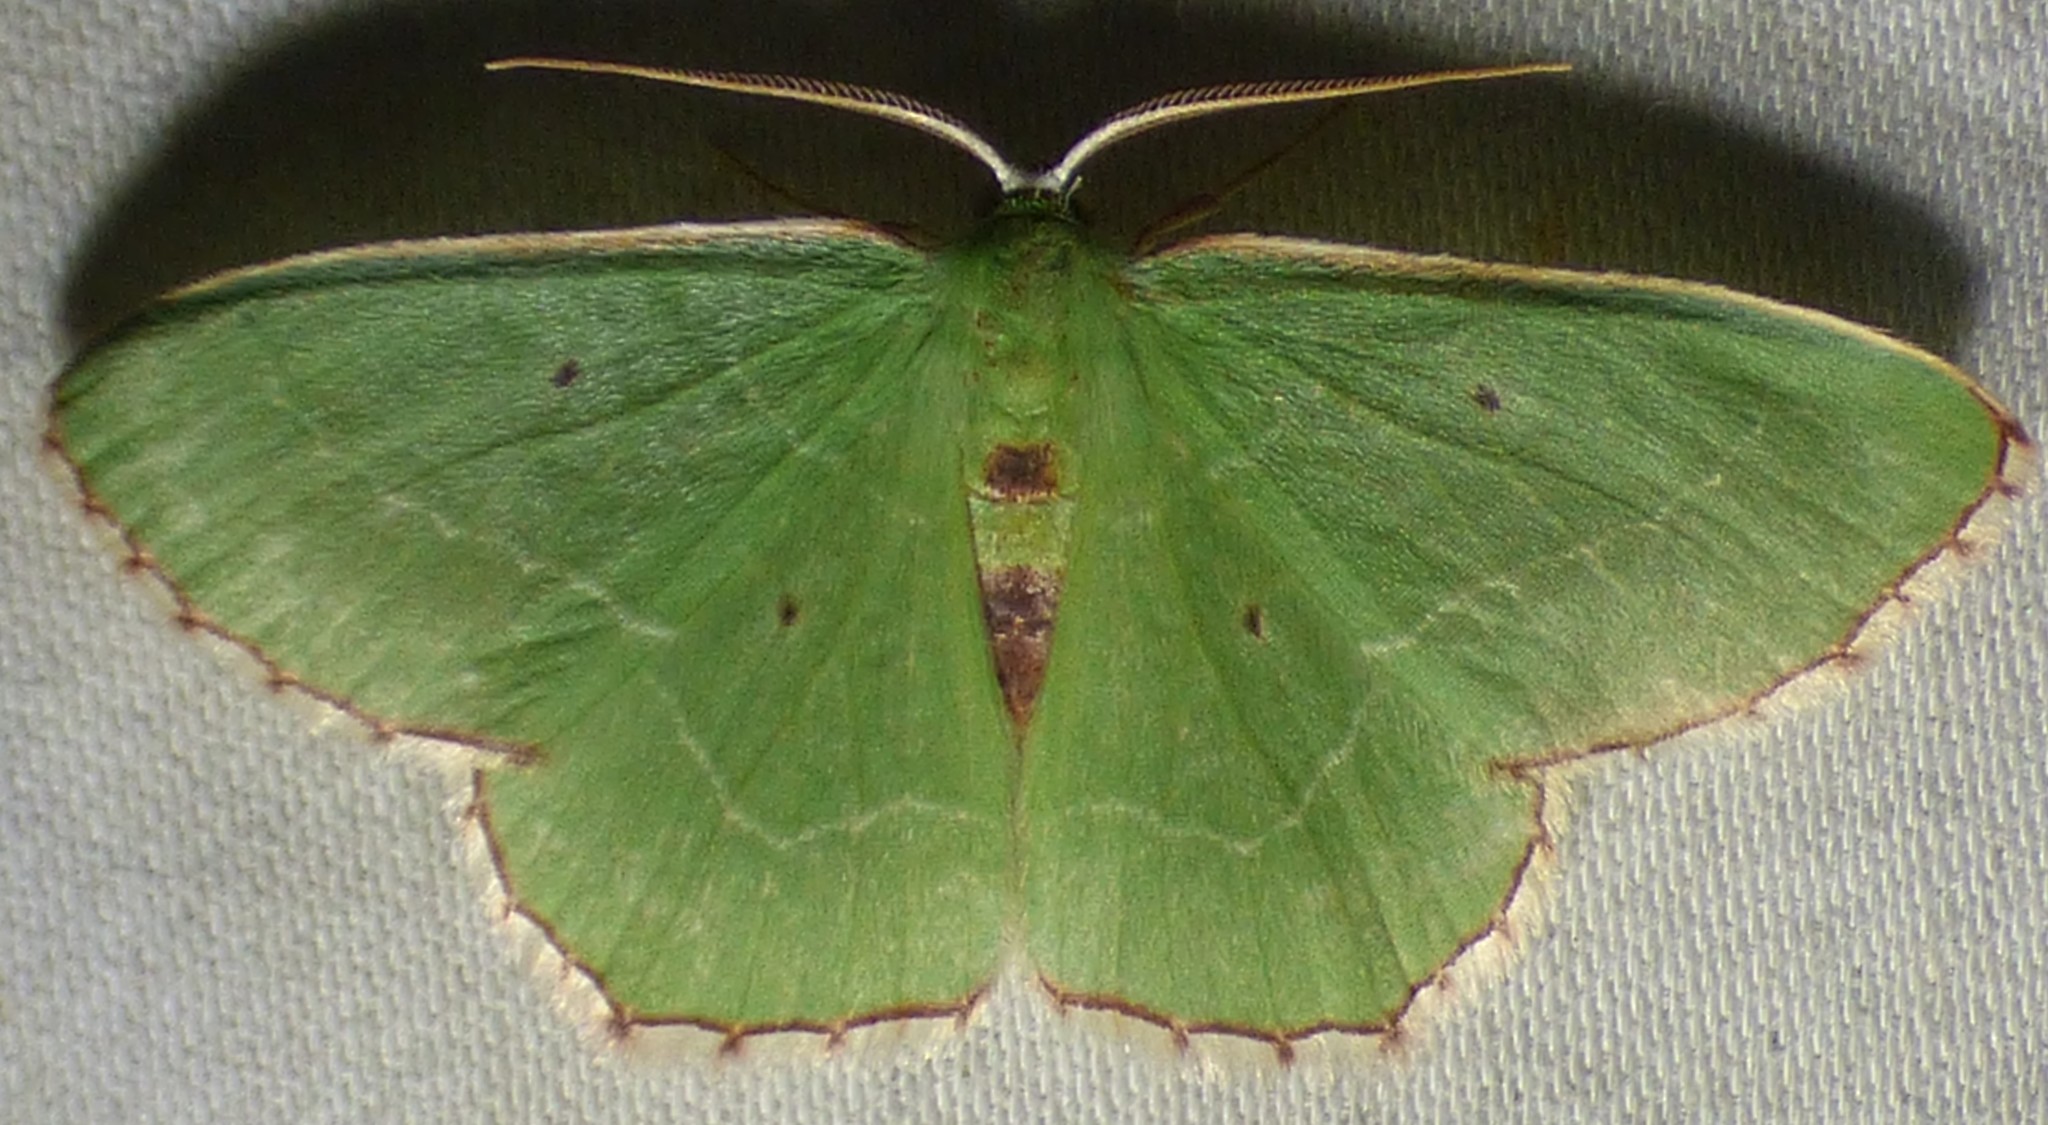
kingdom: Animalia
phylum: Arthropoda
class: Insecta
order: Lepidoptera
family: Geometridae
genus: Nemoria
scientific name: Nemoria saturiba
